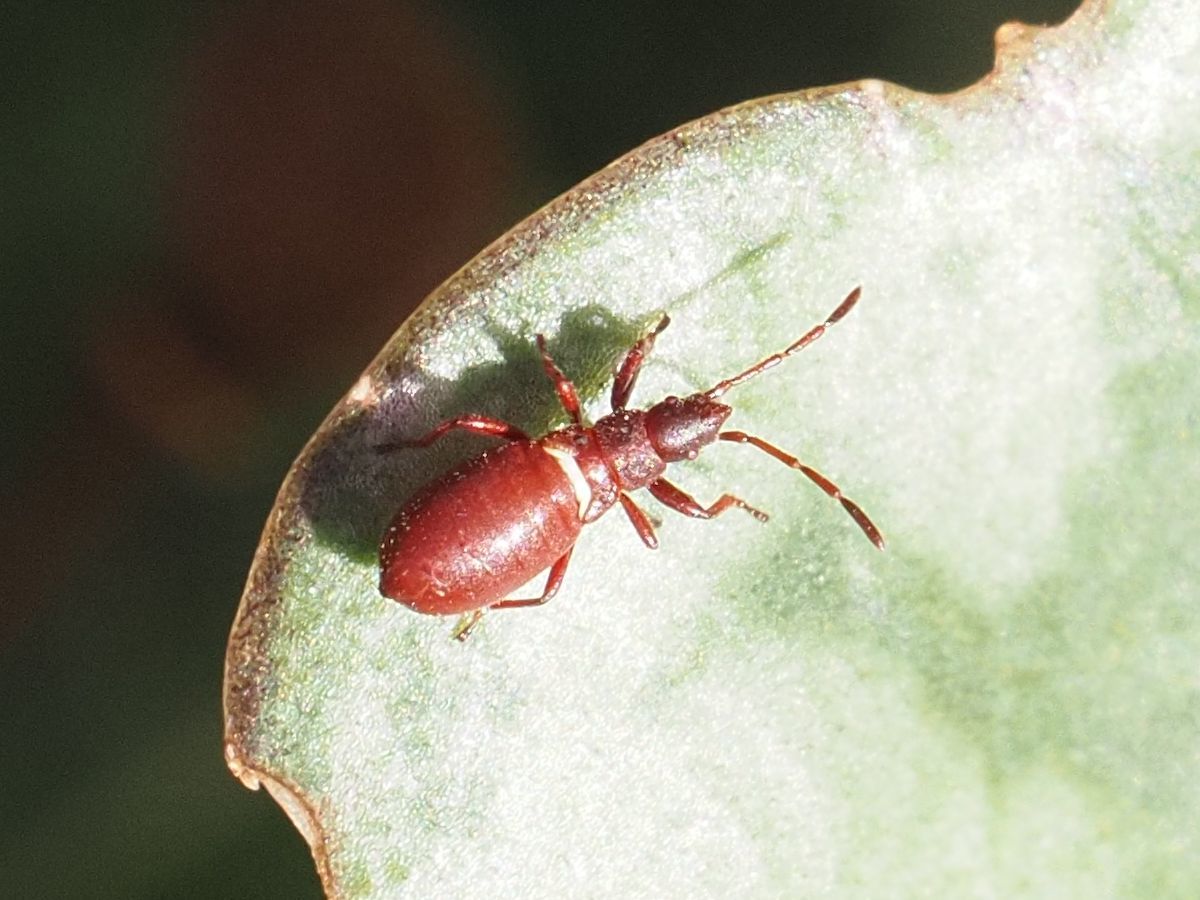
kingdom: Animalia
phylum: Arthropoda
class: Insecta
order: Hemiptera
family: Oxycarenidae
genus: Oxycarenus
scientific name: Oxycarenus lavaterae
